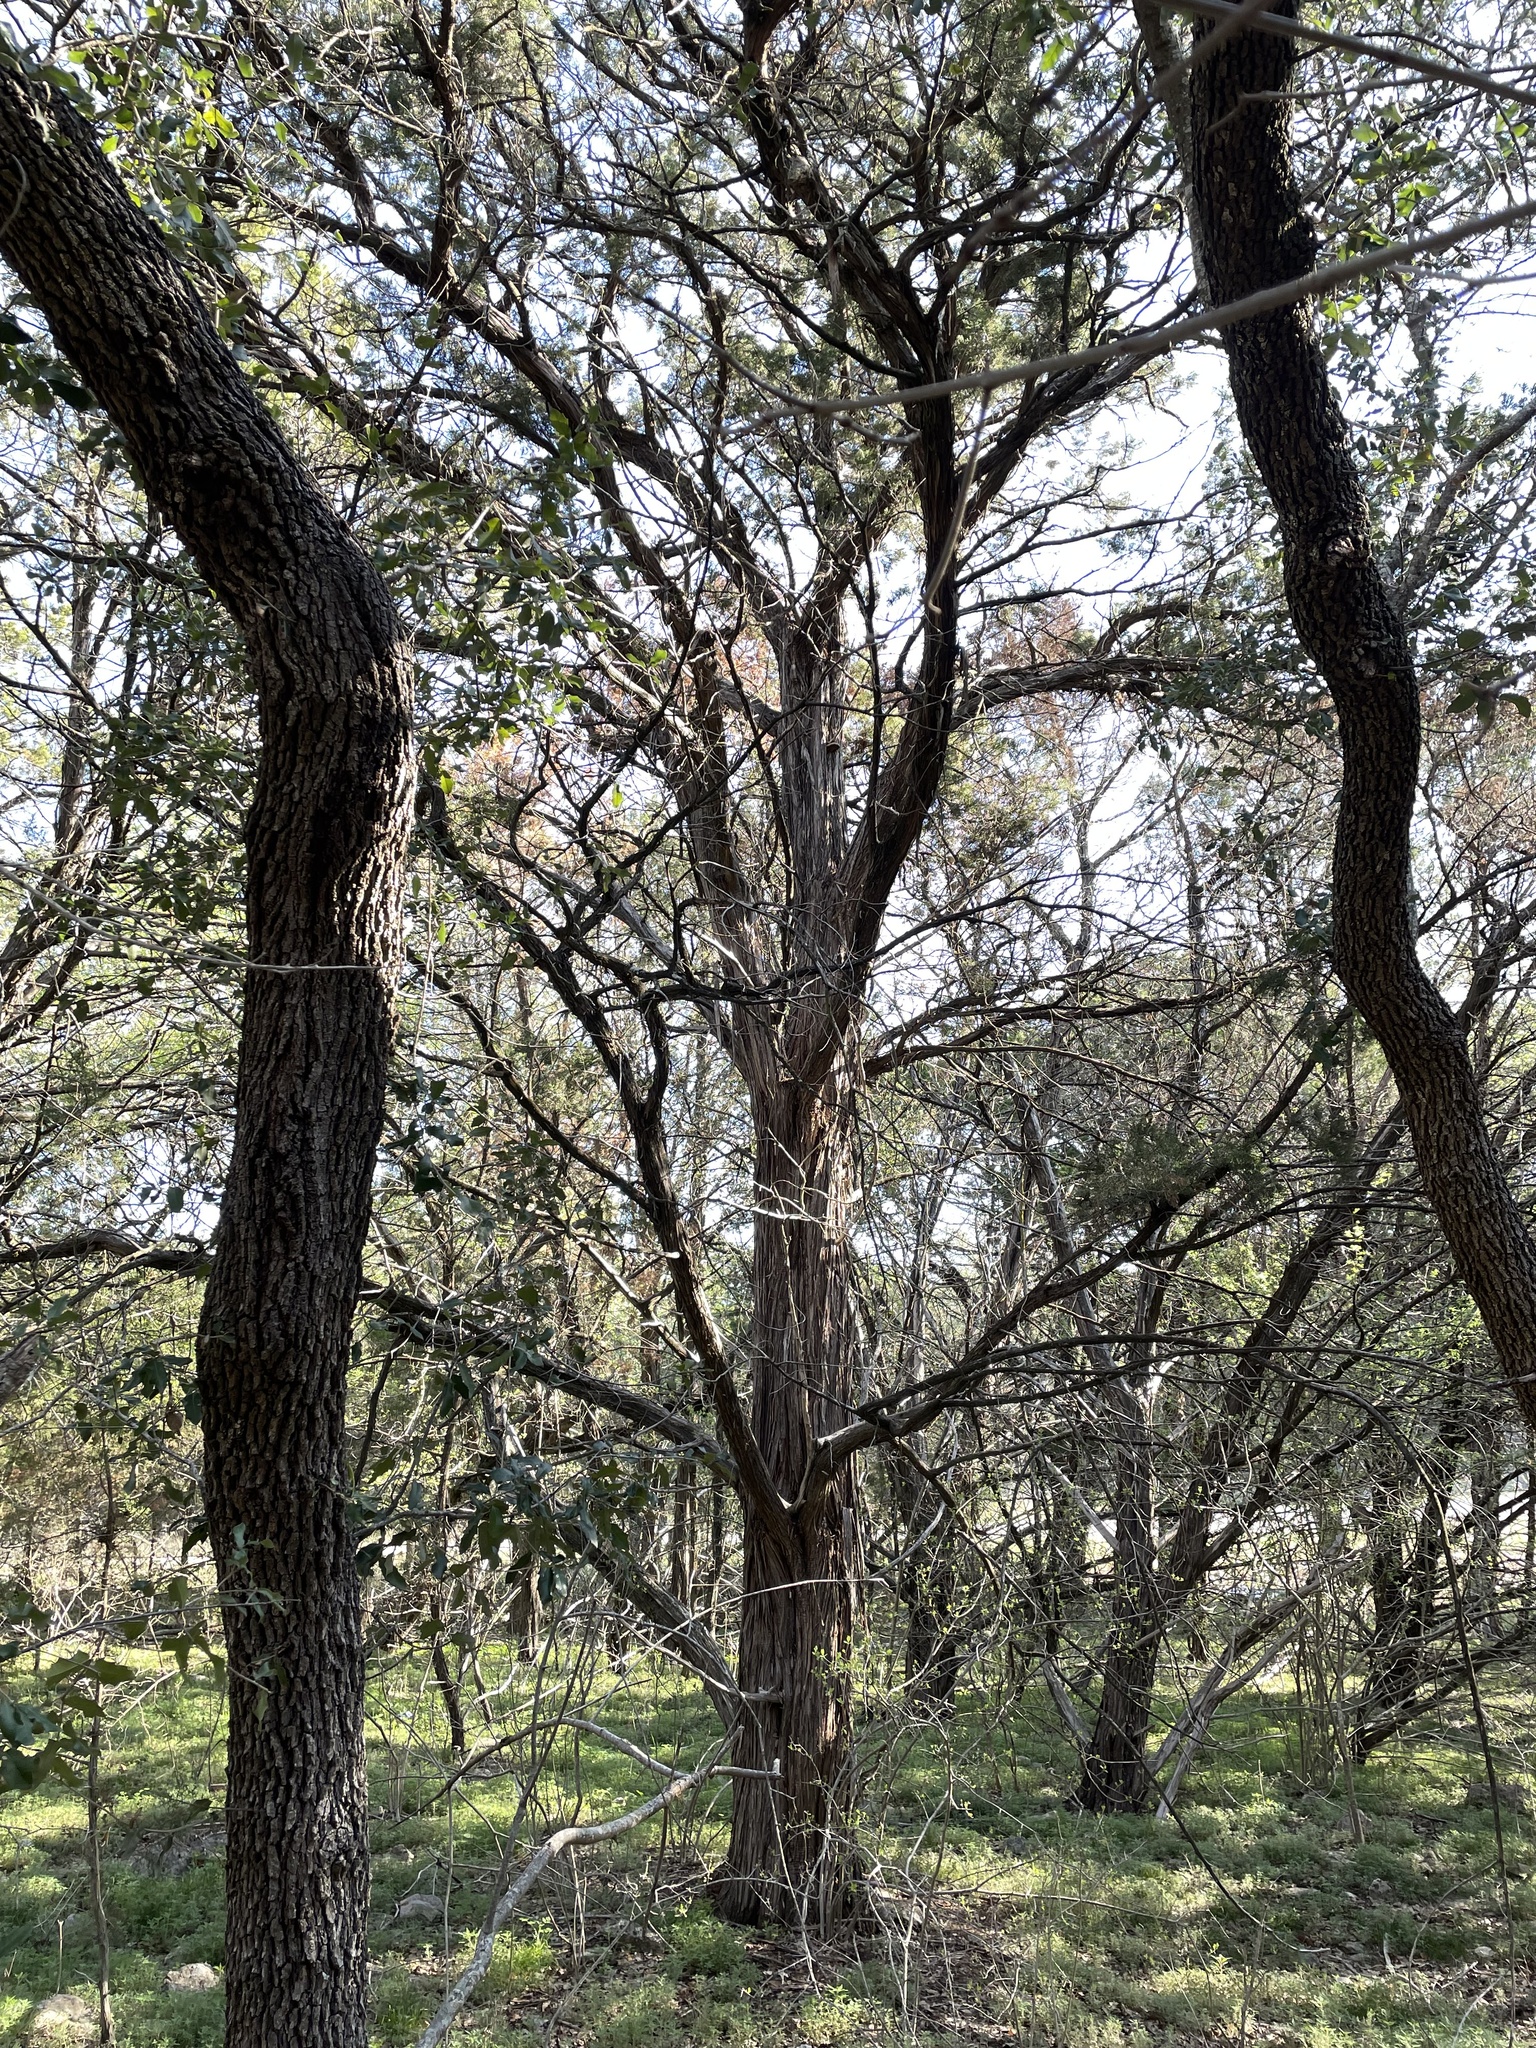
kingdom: Plantae
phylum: Tracheophyta
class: Pinopsida
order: Pinales
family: Cupressaceae
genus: Juniperus
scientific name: Juniperus ashei
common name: Mexican juniper
